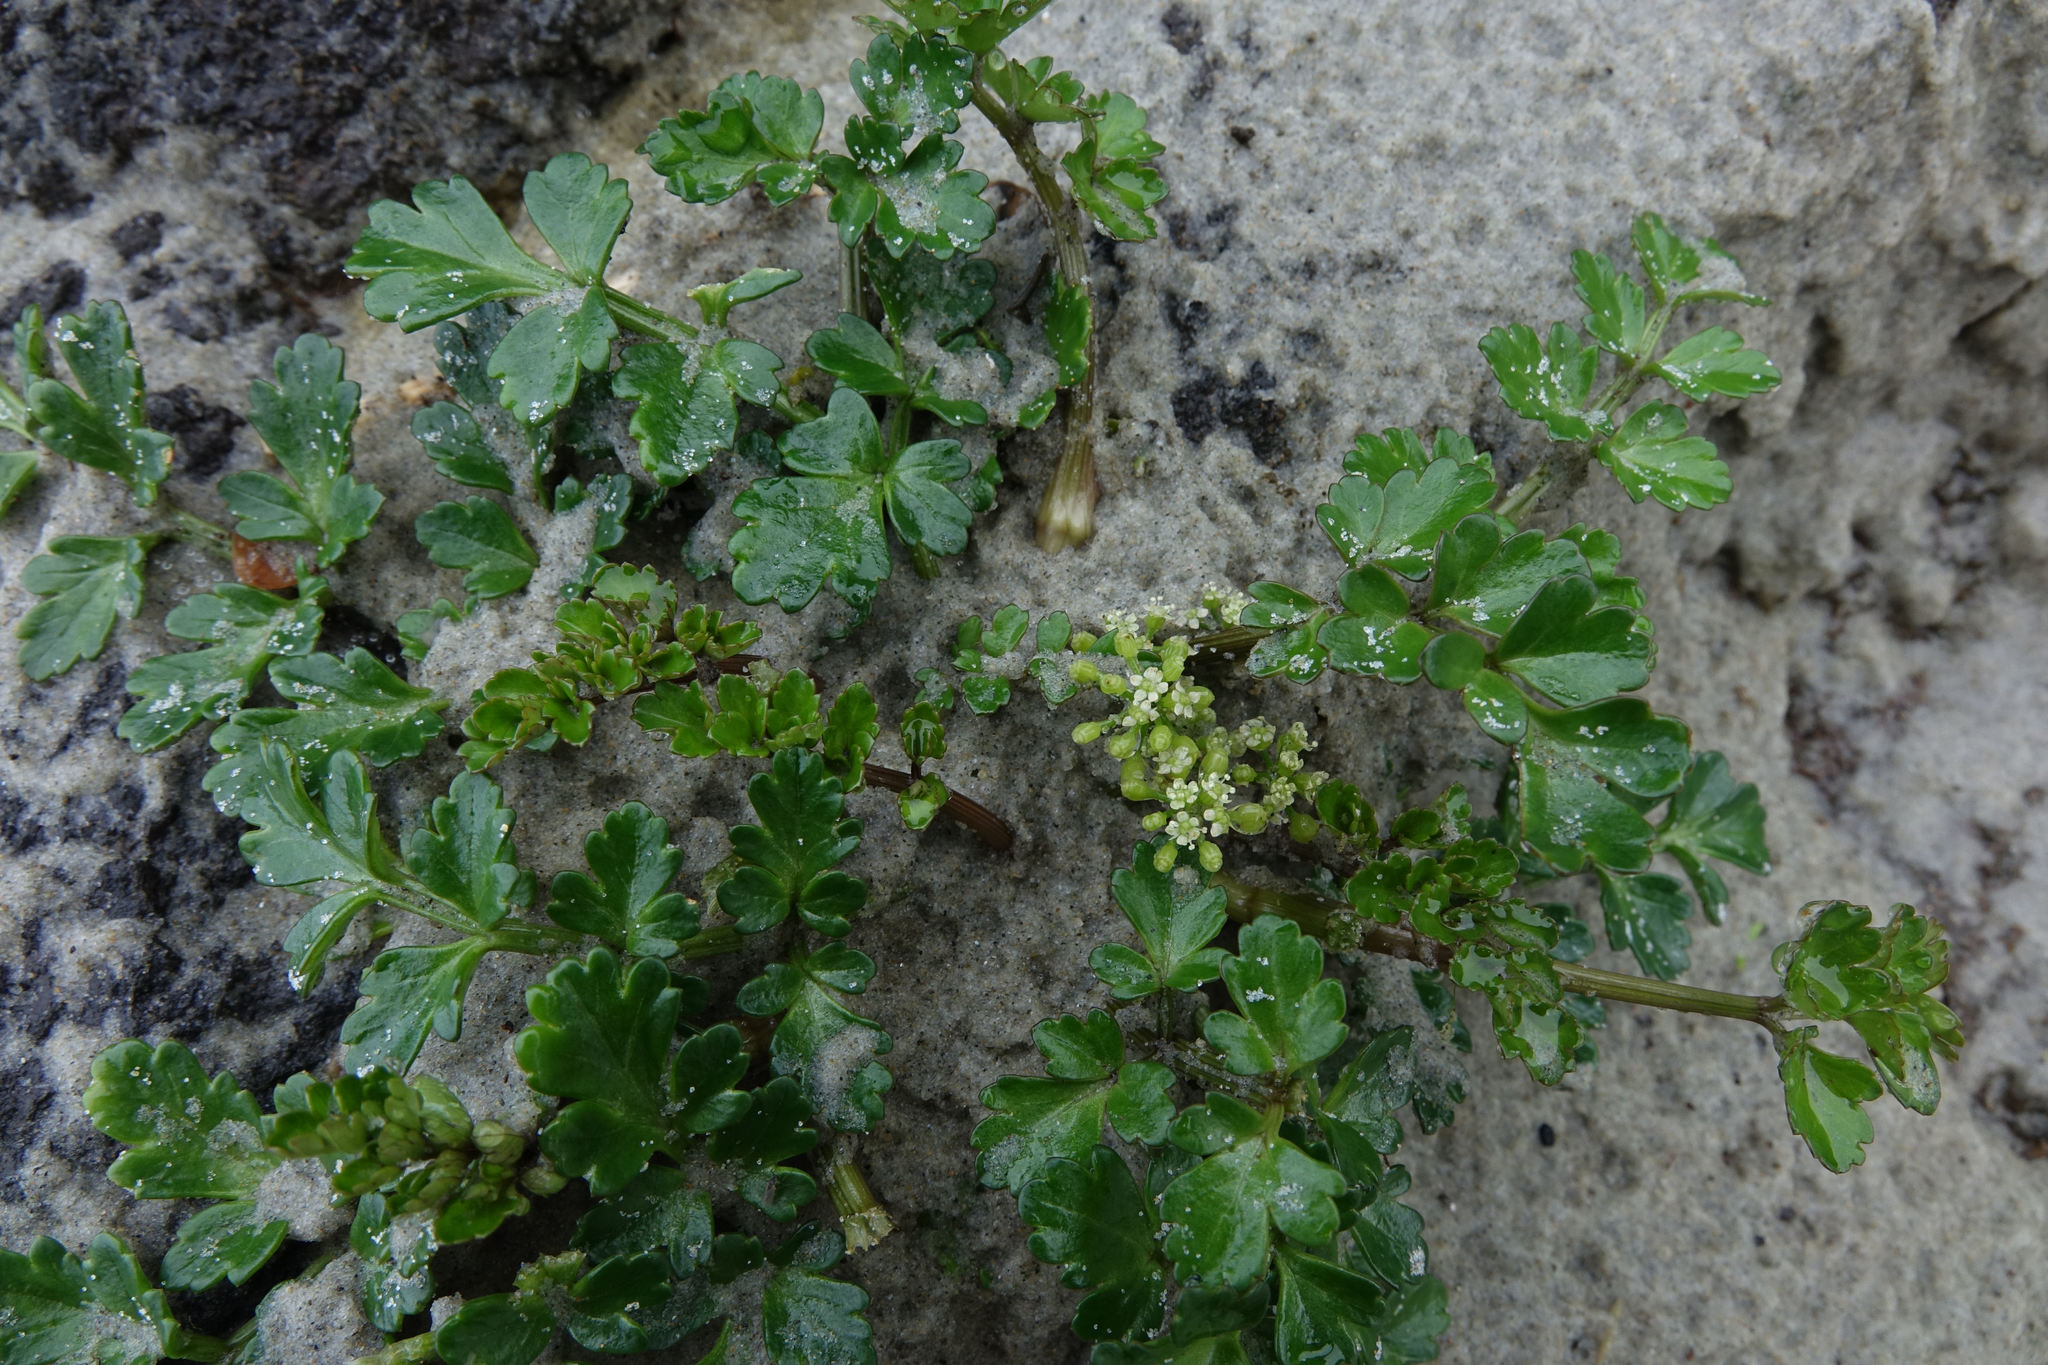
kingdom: Plantae
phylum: Tracheophyta
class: Magnoliopsida
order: Apiales
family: Apiaceae
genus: Apium
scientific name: Apium prostratum
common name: Prostrate marshwort
